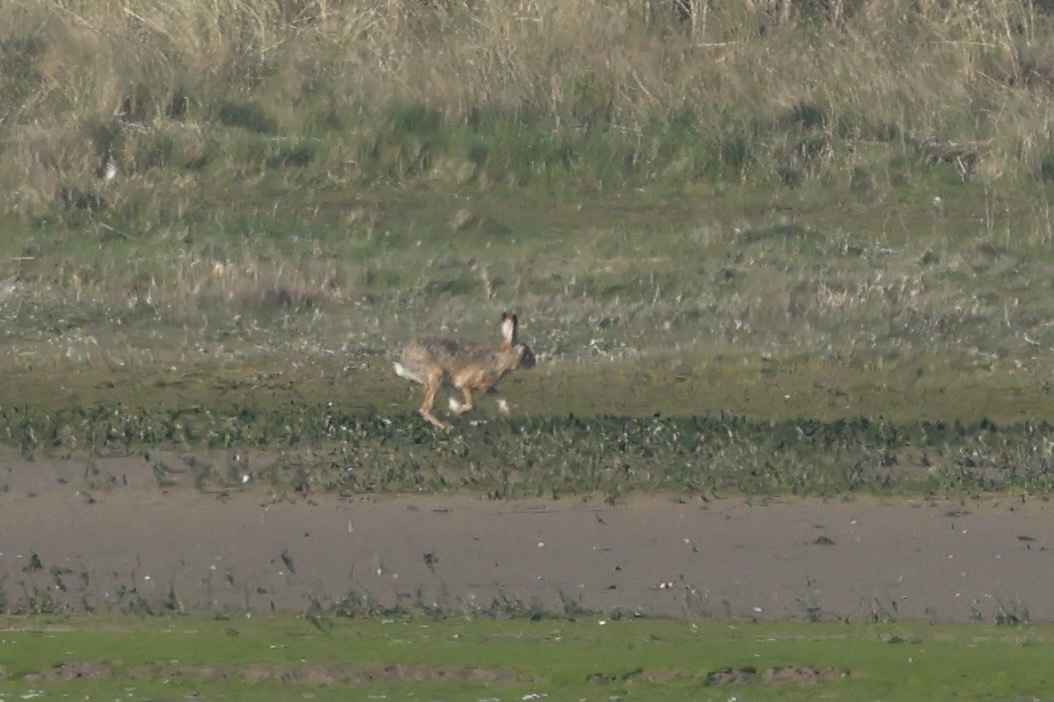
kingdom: Animalia
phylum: Chordata
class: Mammalia
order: Lagomorpha
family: Leporidae
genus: Lepus
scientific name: Lepus europaeus
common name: European hare
